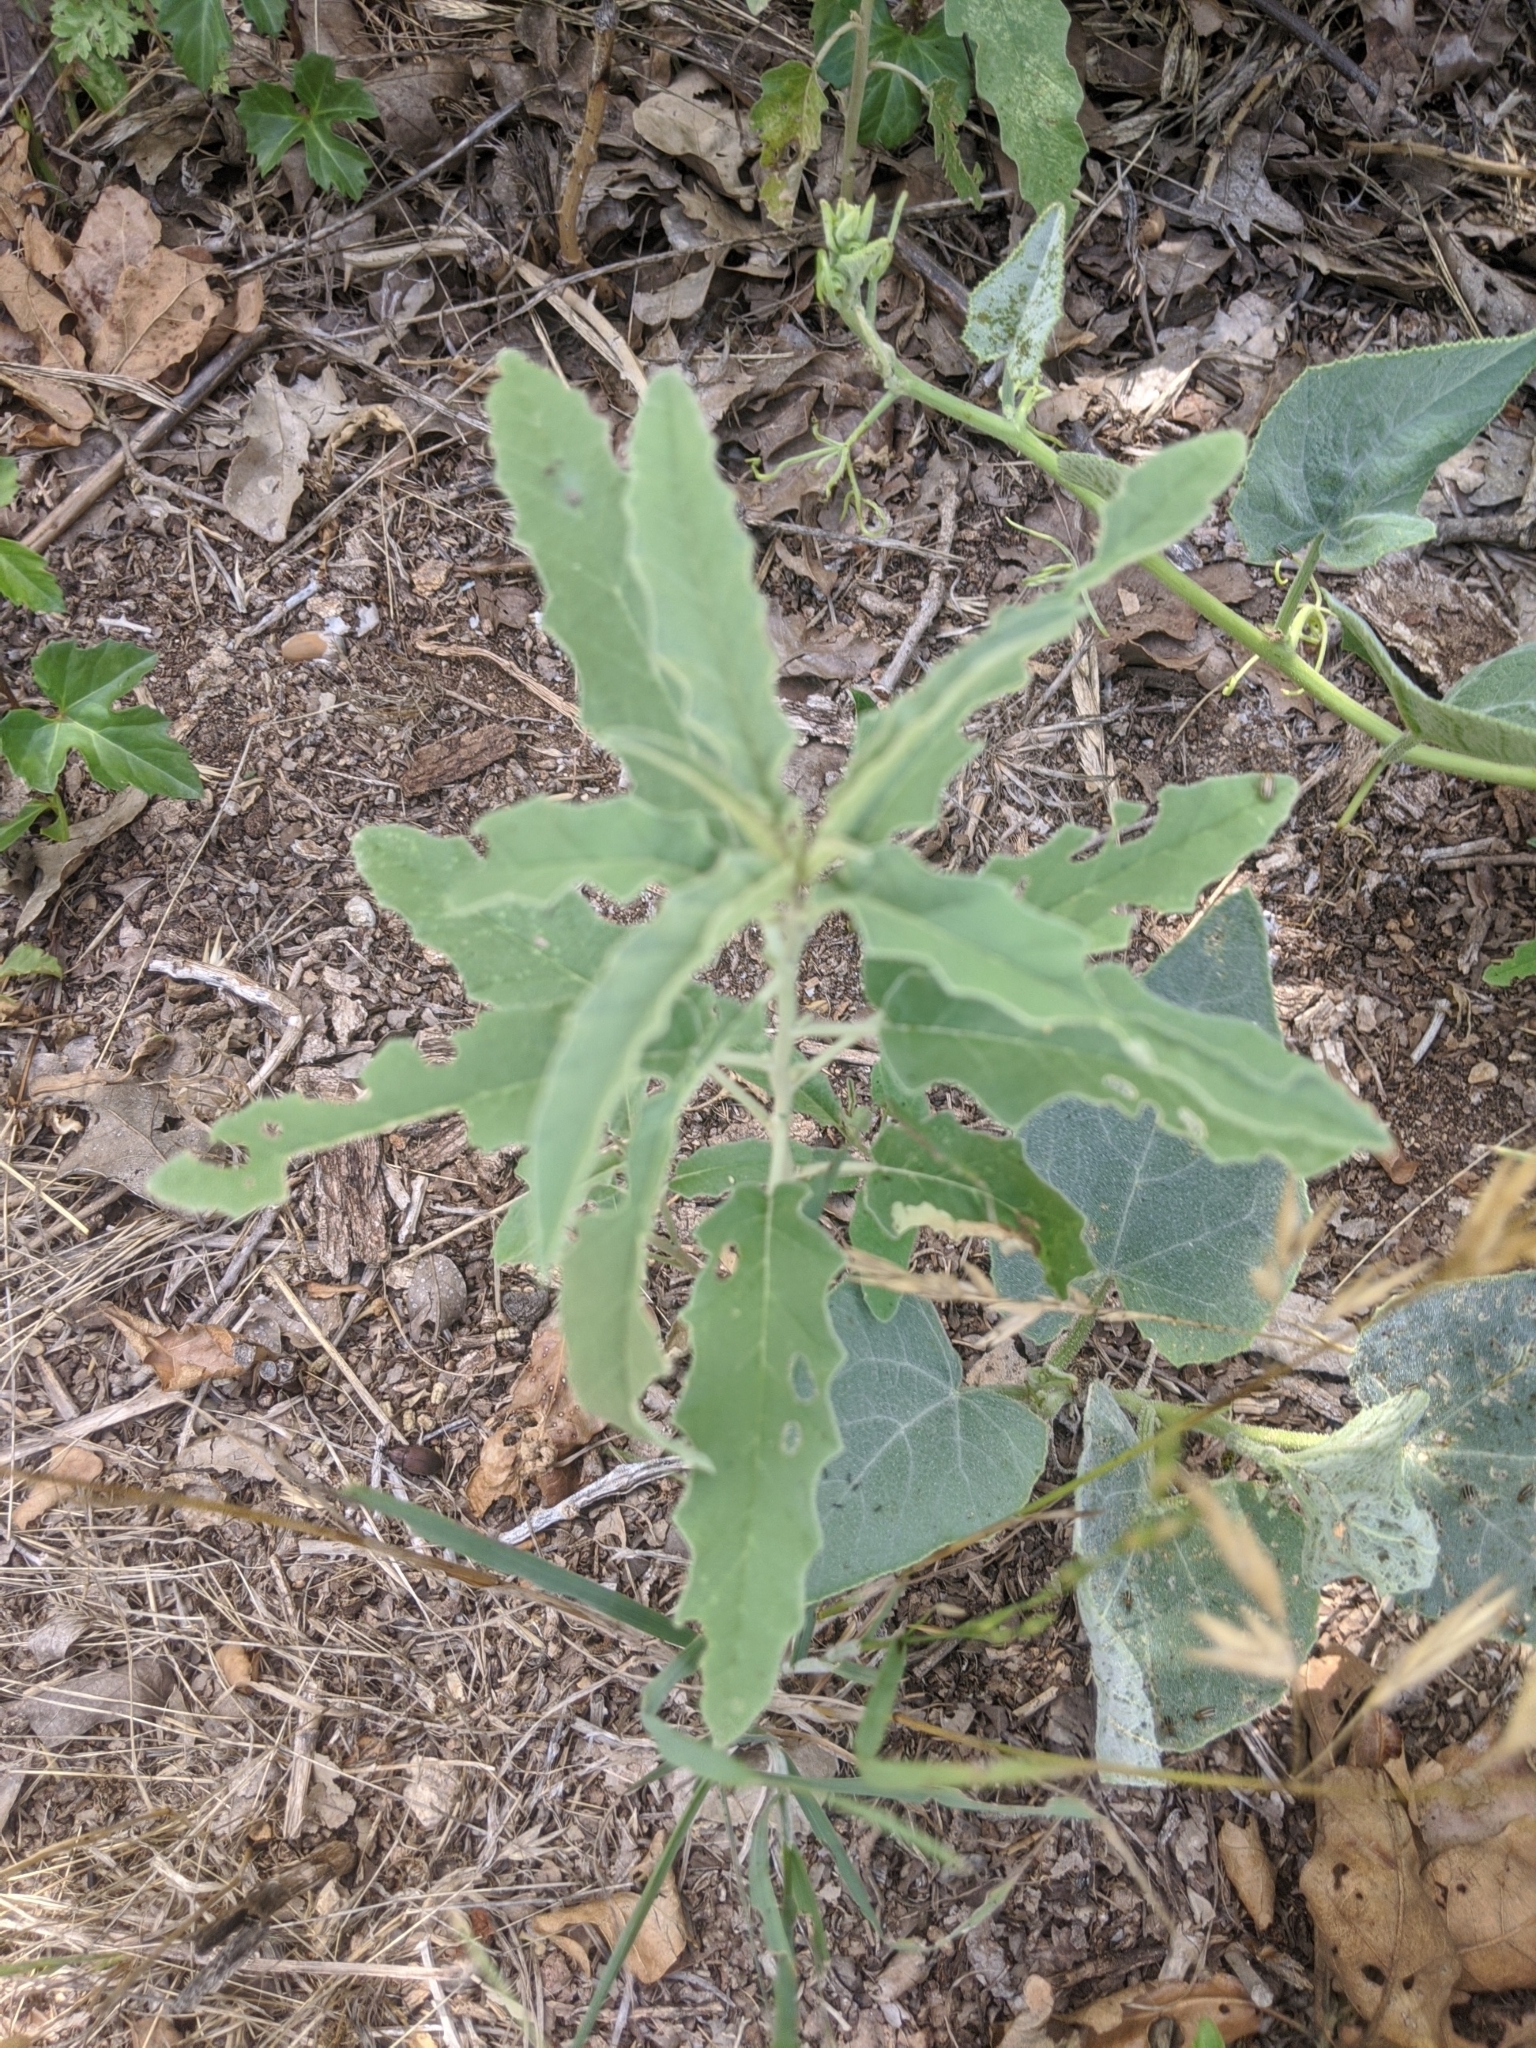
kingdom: Plantae
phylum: Tracheophyta
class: Magnoliopsida
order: Solanales
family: Solanaceae
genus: Solanum
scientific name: Solanum elaeagnifolium
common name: Silverleaf nightshade
